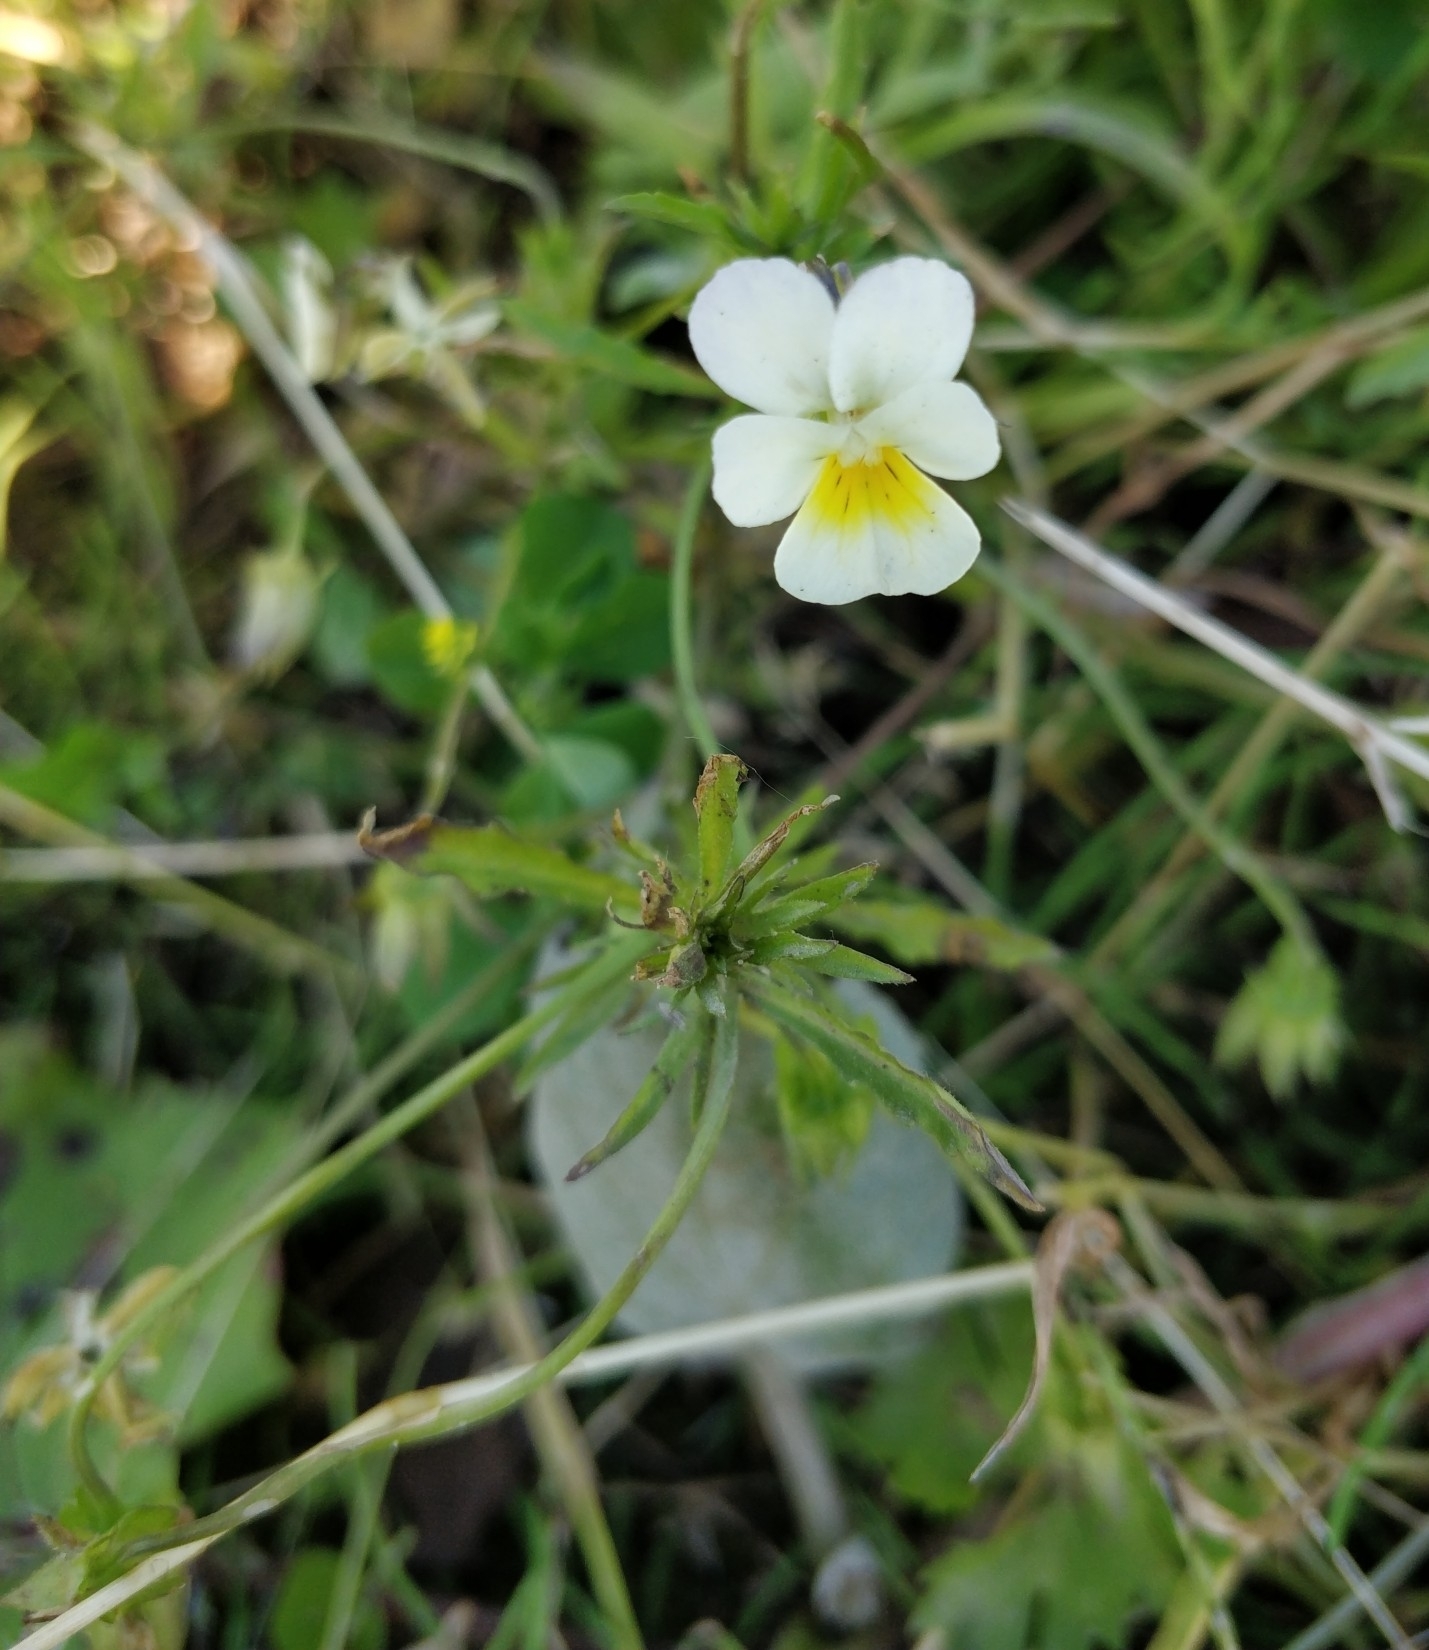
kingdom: Plantae
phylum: Tracheophyta
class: Magnoliopsida
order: Malpighiales
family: Violaceae
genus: Viola
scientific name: Viola arvensis
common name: Field pansy
